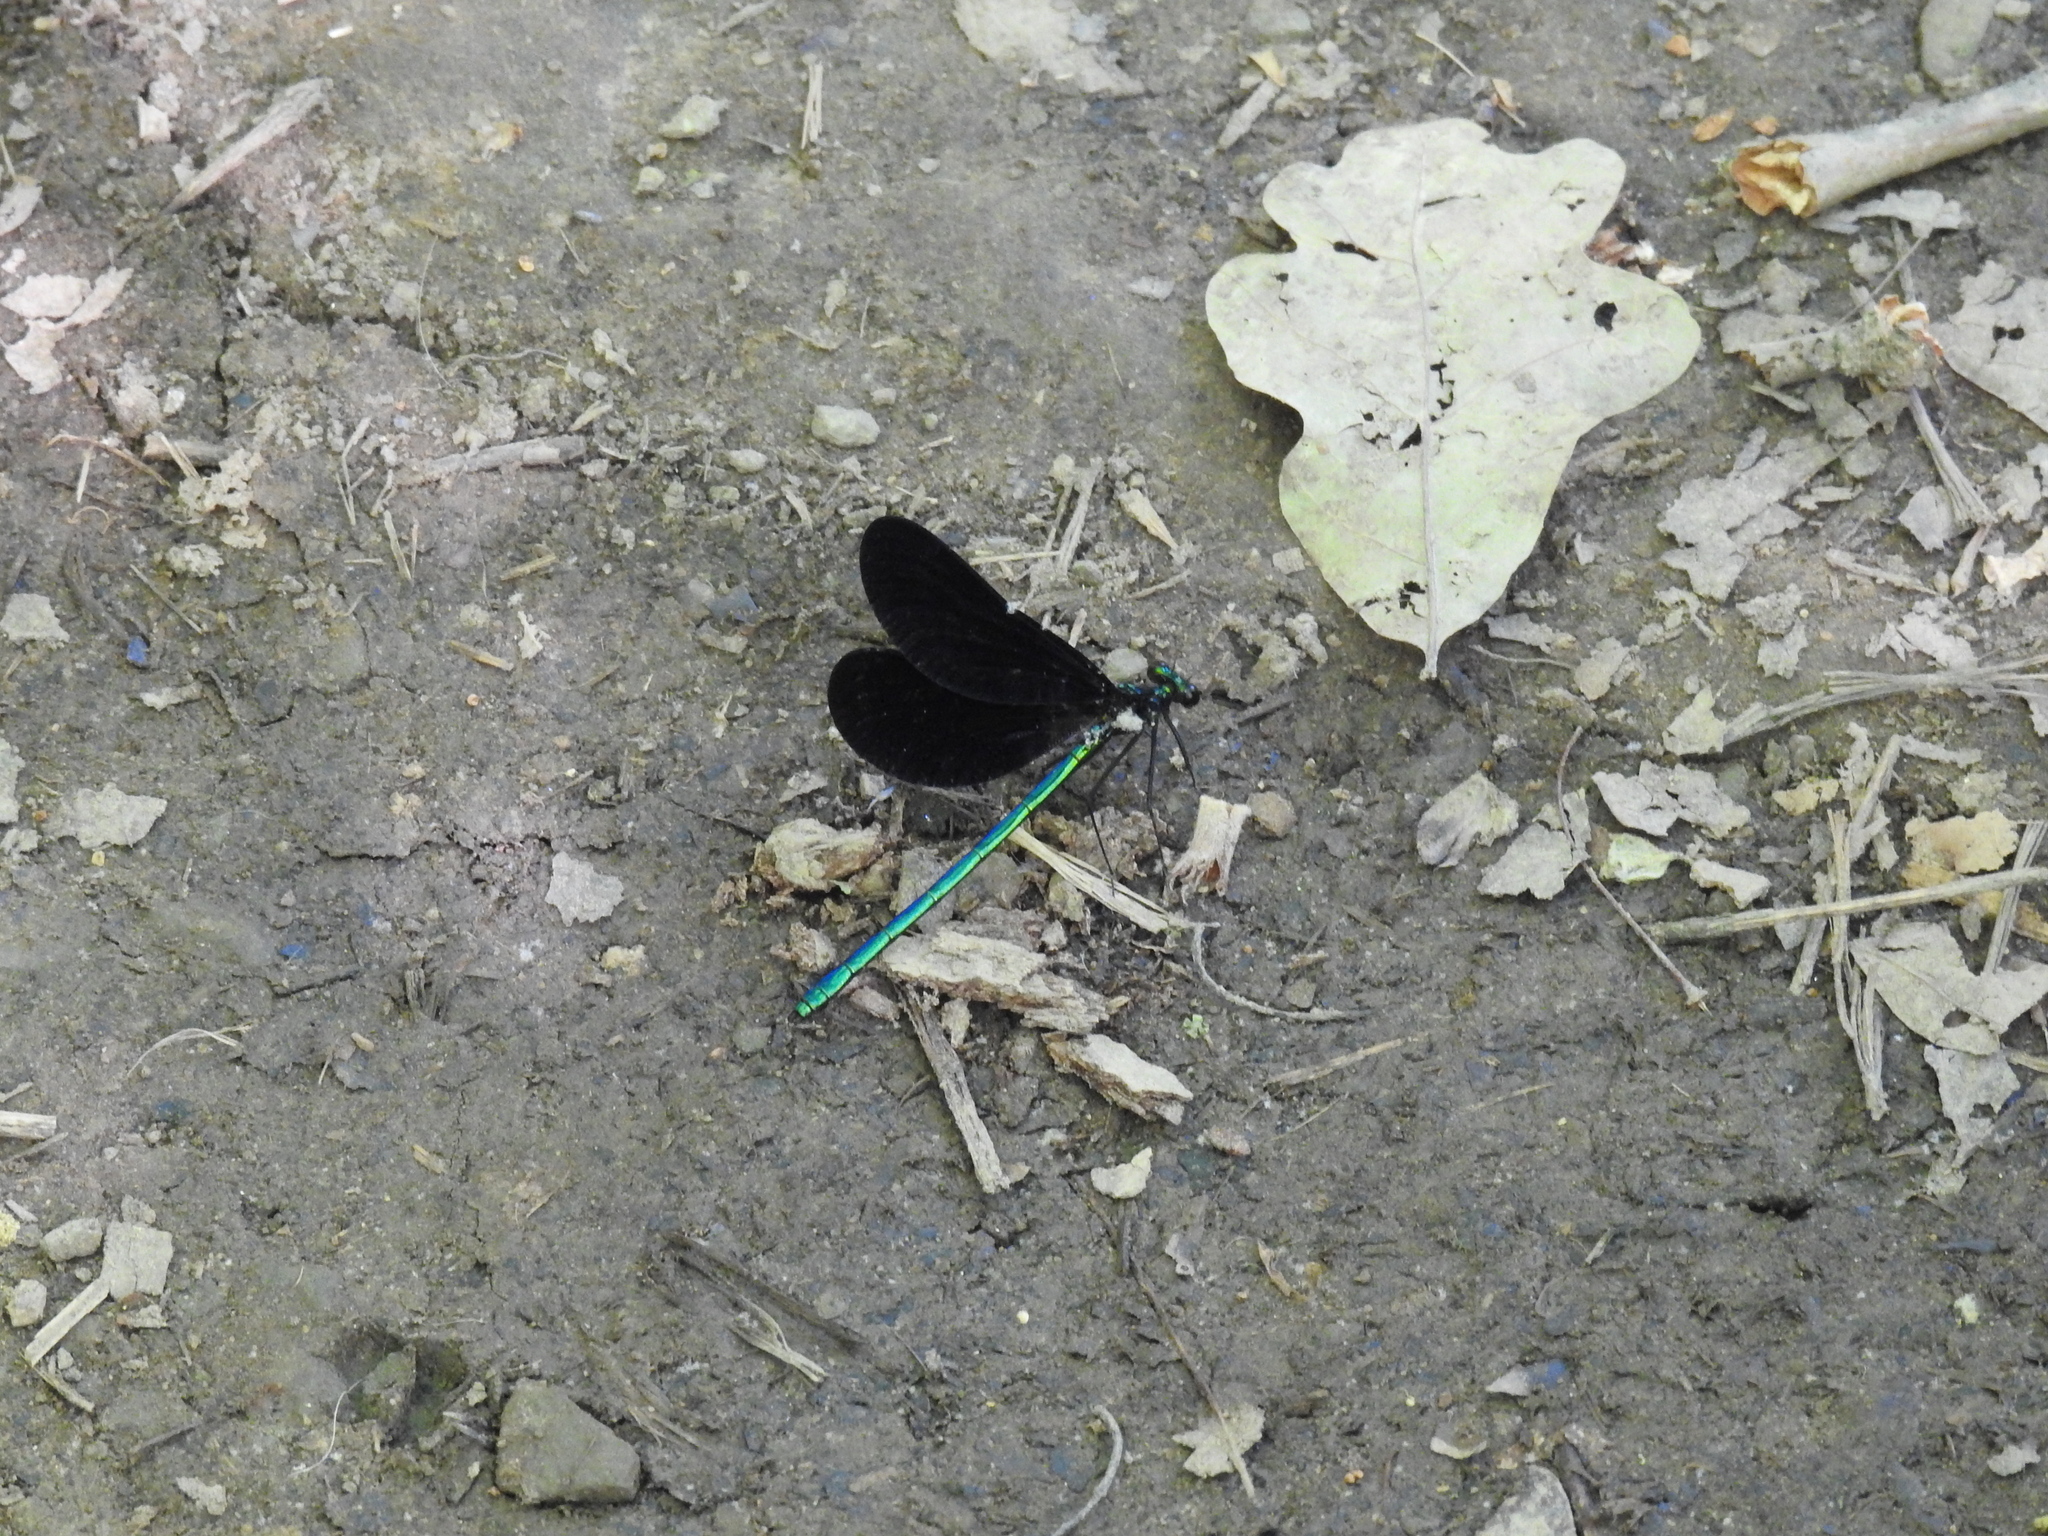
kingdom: Animalia
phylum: Arthropoda
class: Insecta
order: Odonata
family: Calopterygidae
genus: Calopteryx
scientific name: Calopteryx maculata
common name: Ebony jewelwing
